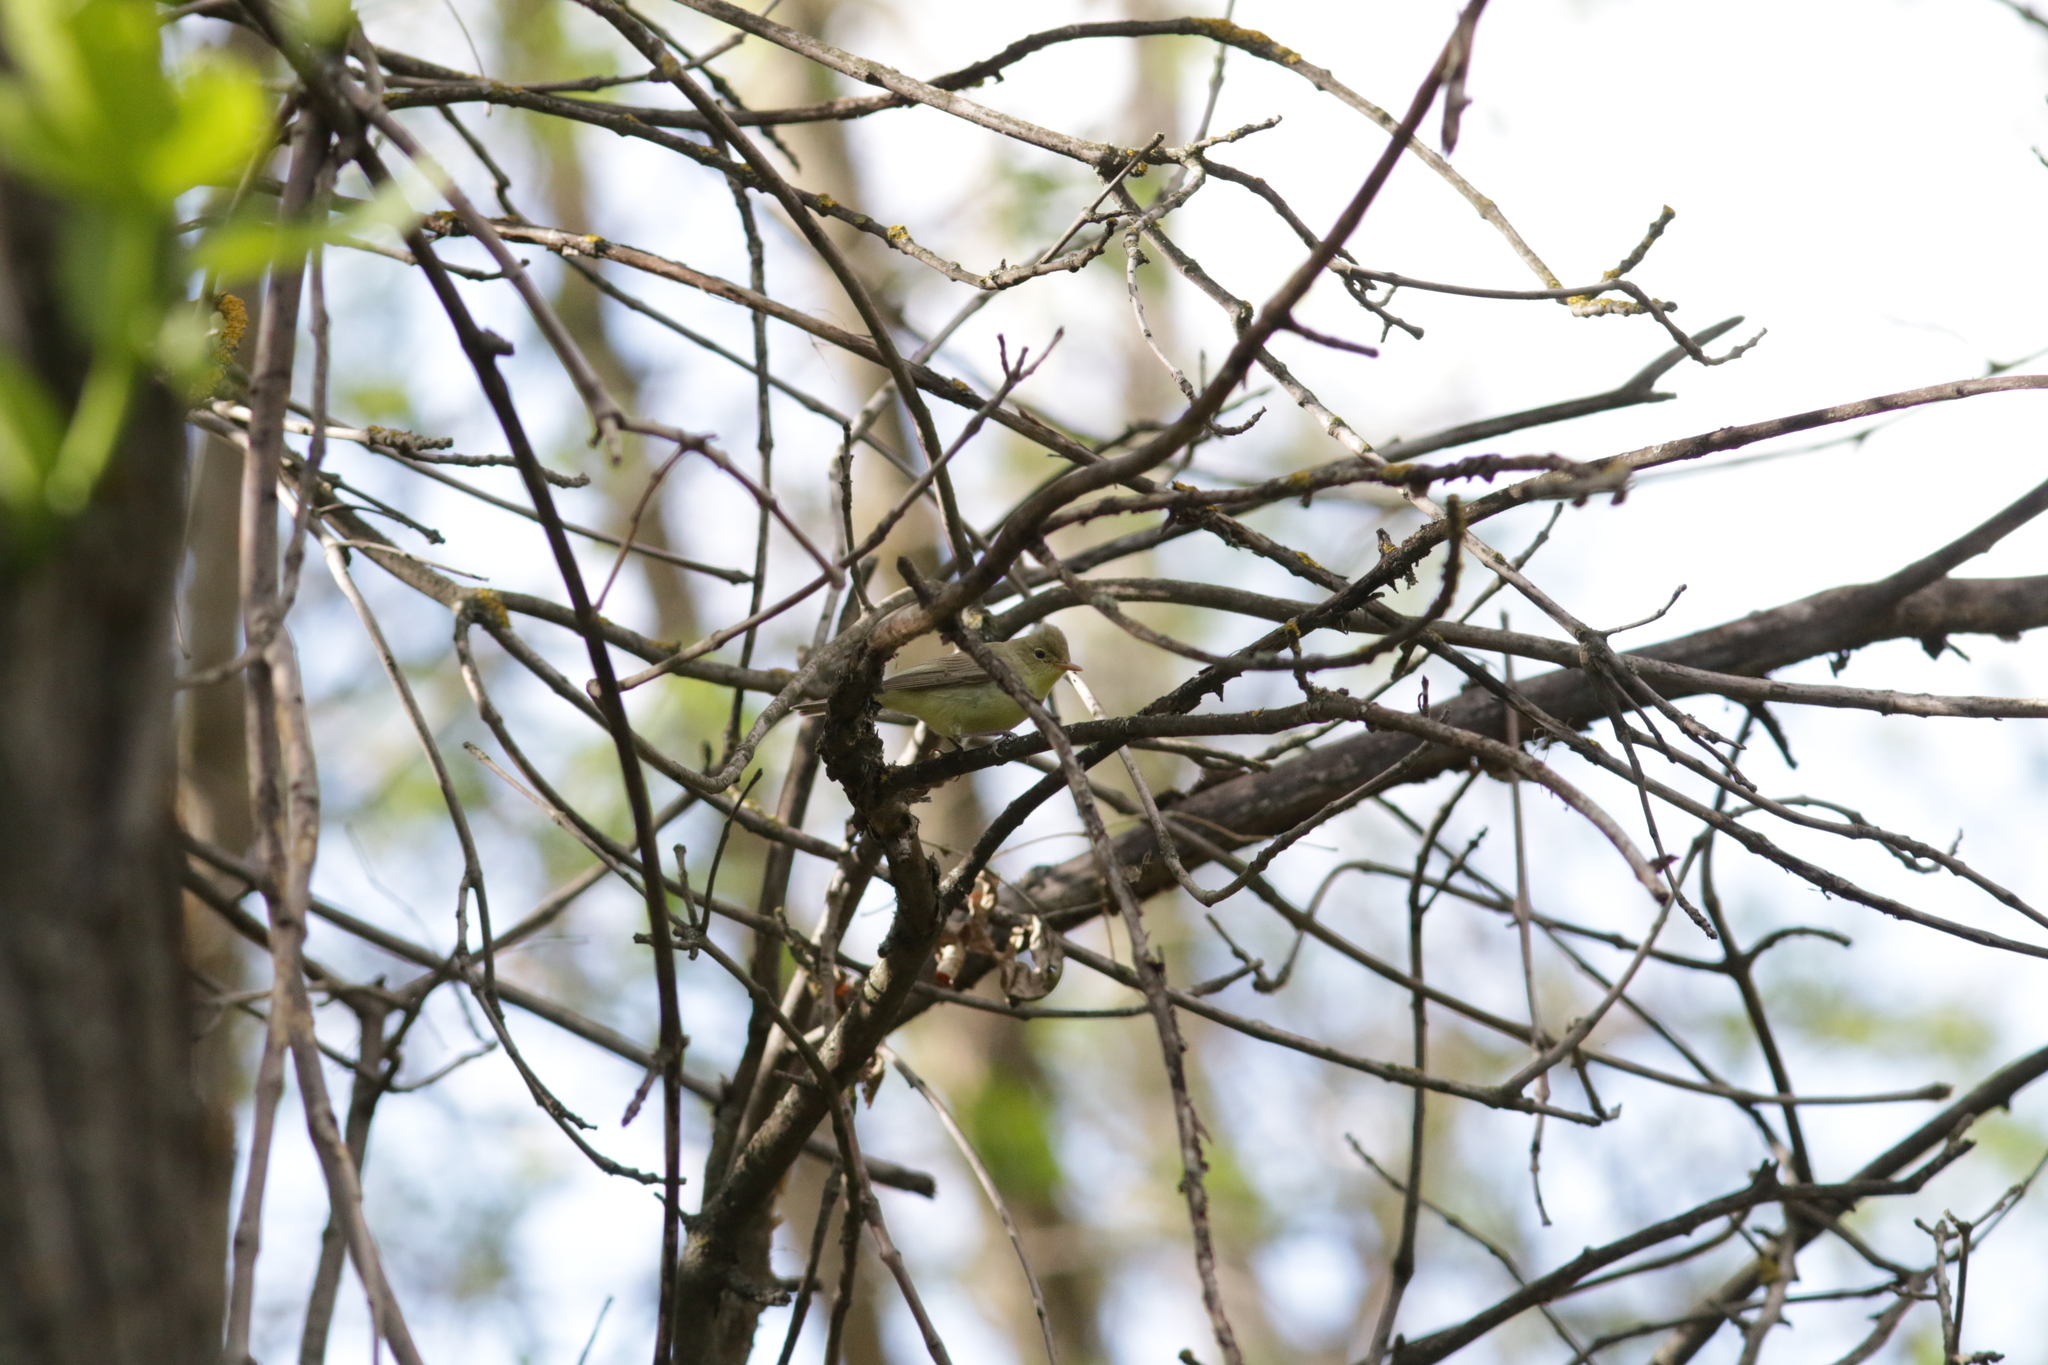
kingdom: Animalia
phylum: Chordata
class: Aves
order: Passeriformes
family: Acrocephalidae
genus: Hippolais
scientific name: Hippolais icterina
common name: Icterine warbler
